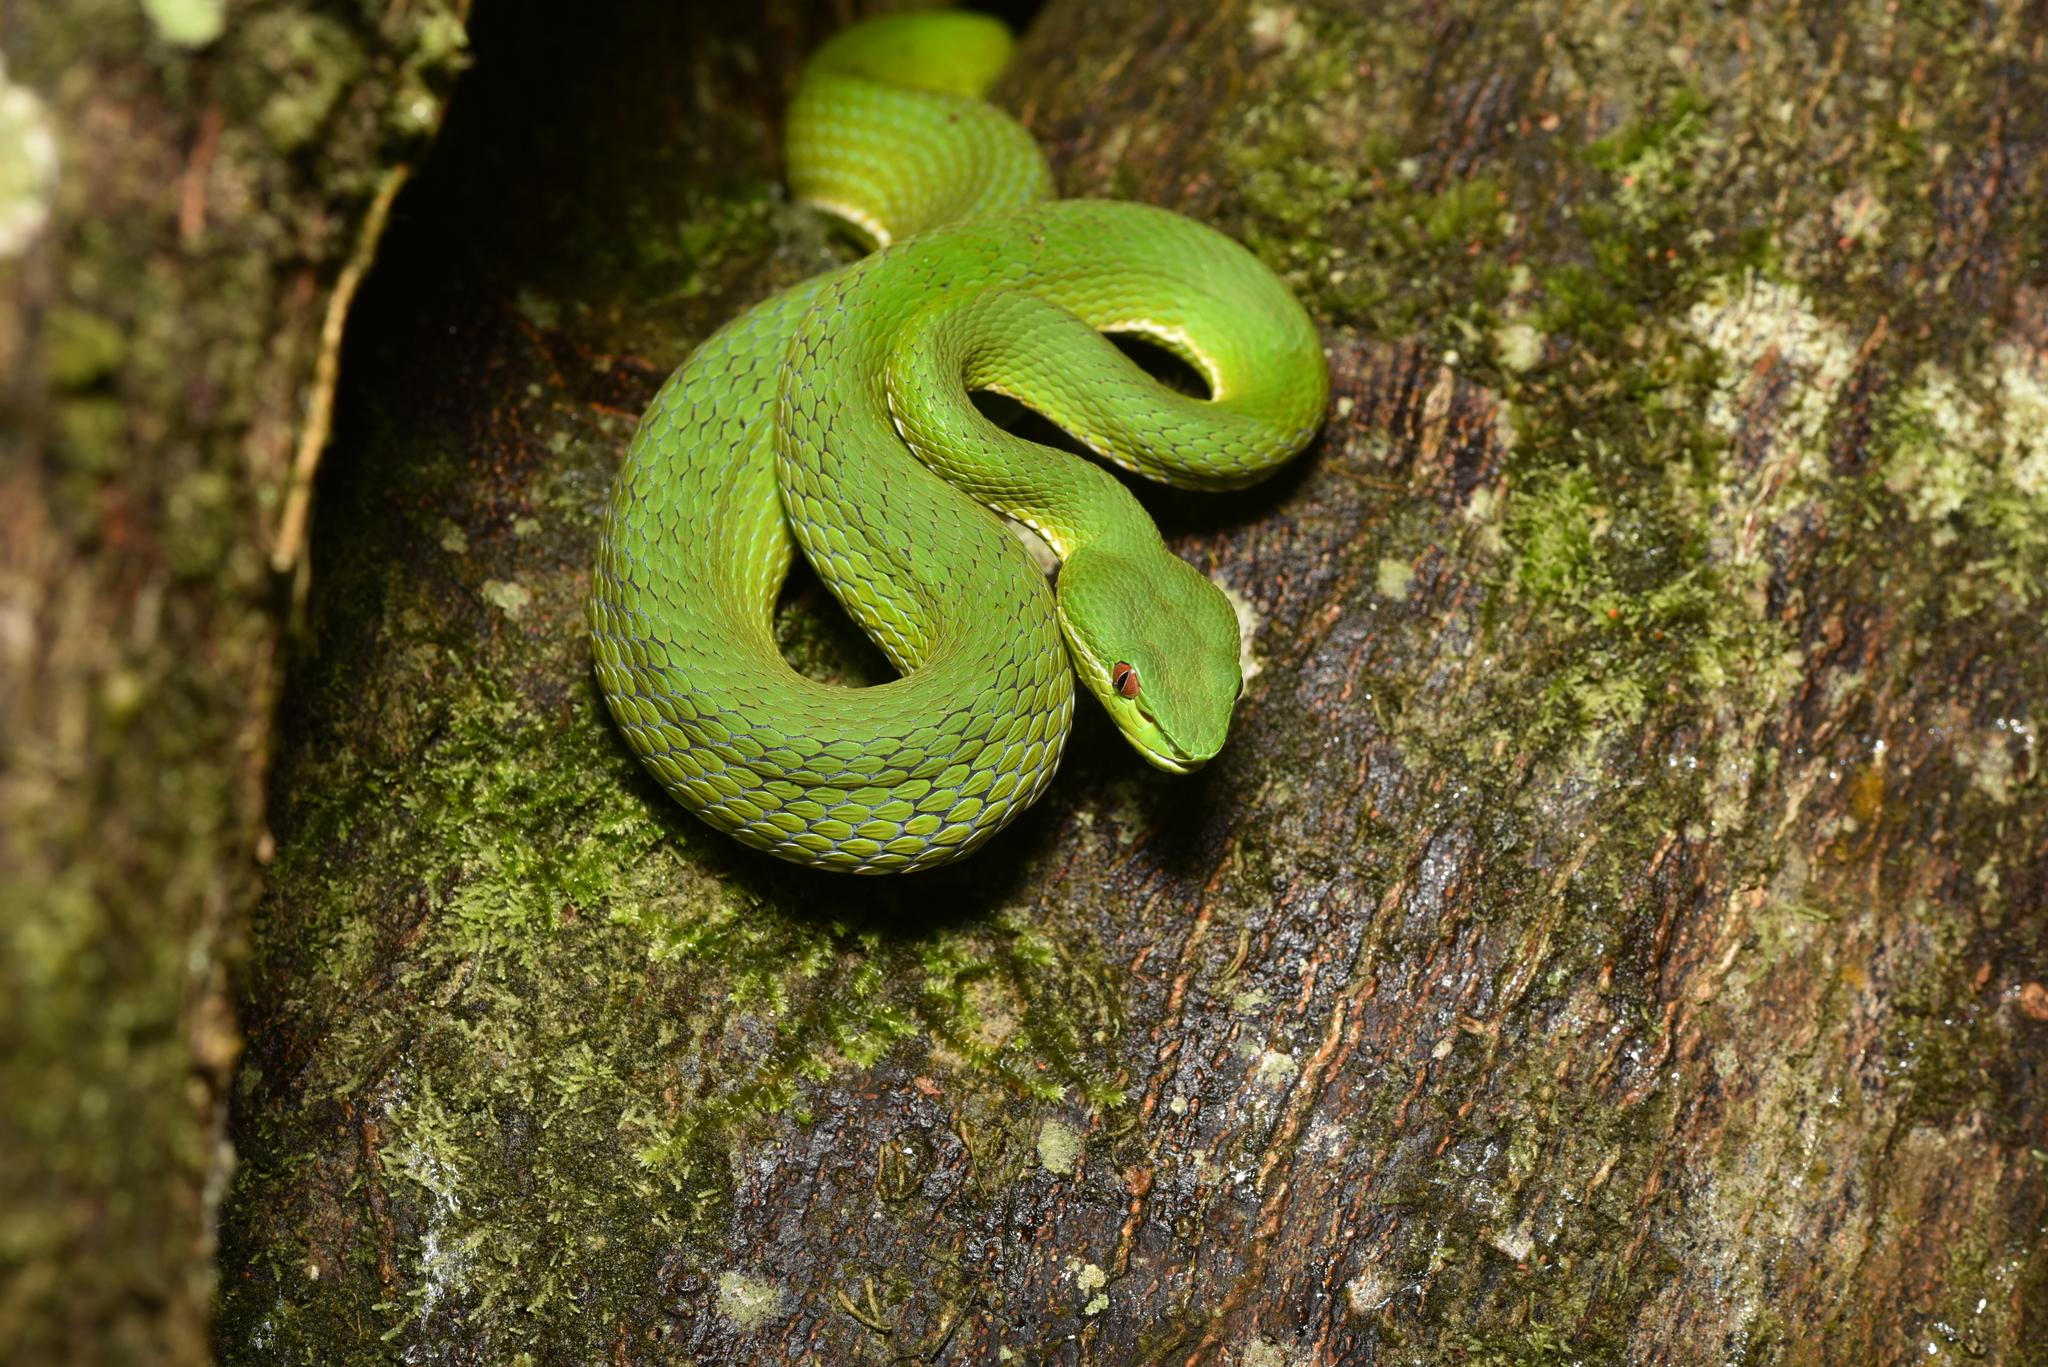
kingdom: Animalia
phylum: Chordata
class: Squamata
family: Viperidae
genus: Trimeresurus
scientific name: Trimeresurus stejnegeri
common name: Chen’s bamboo pit viper
